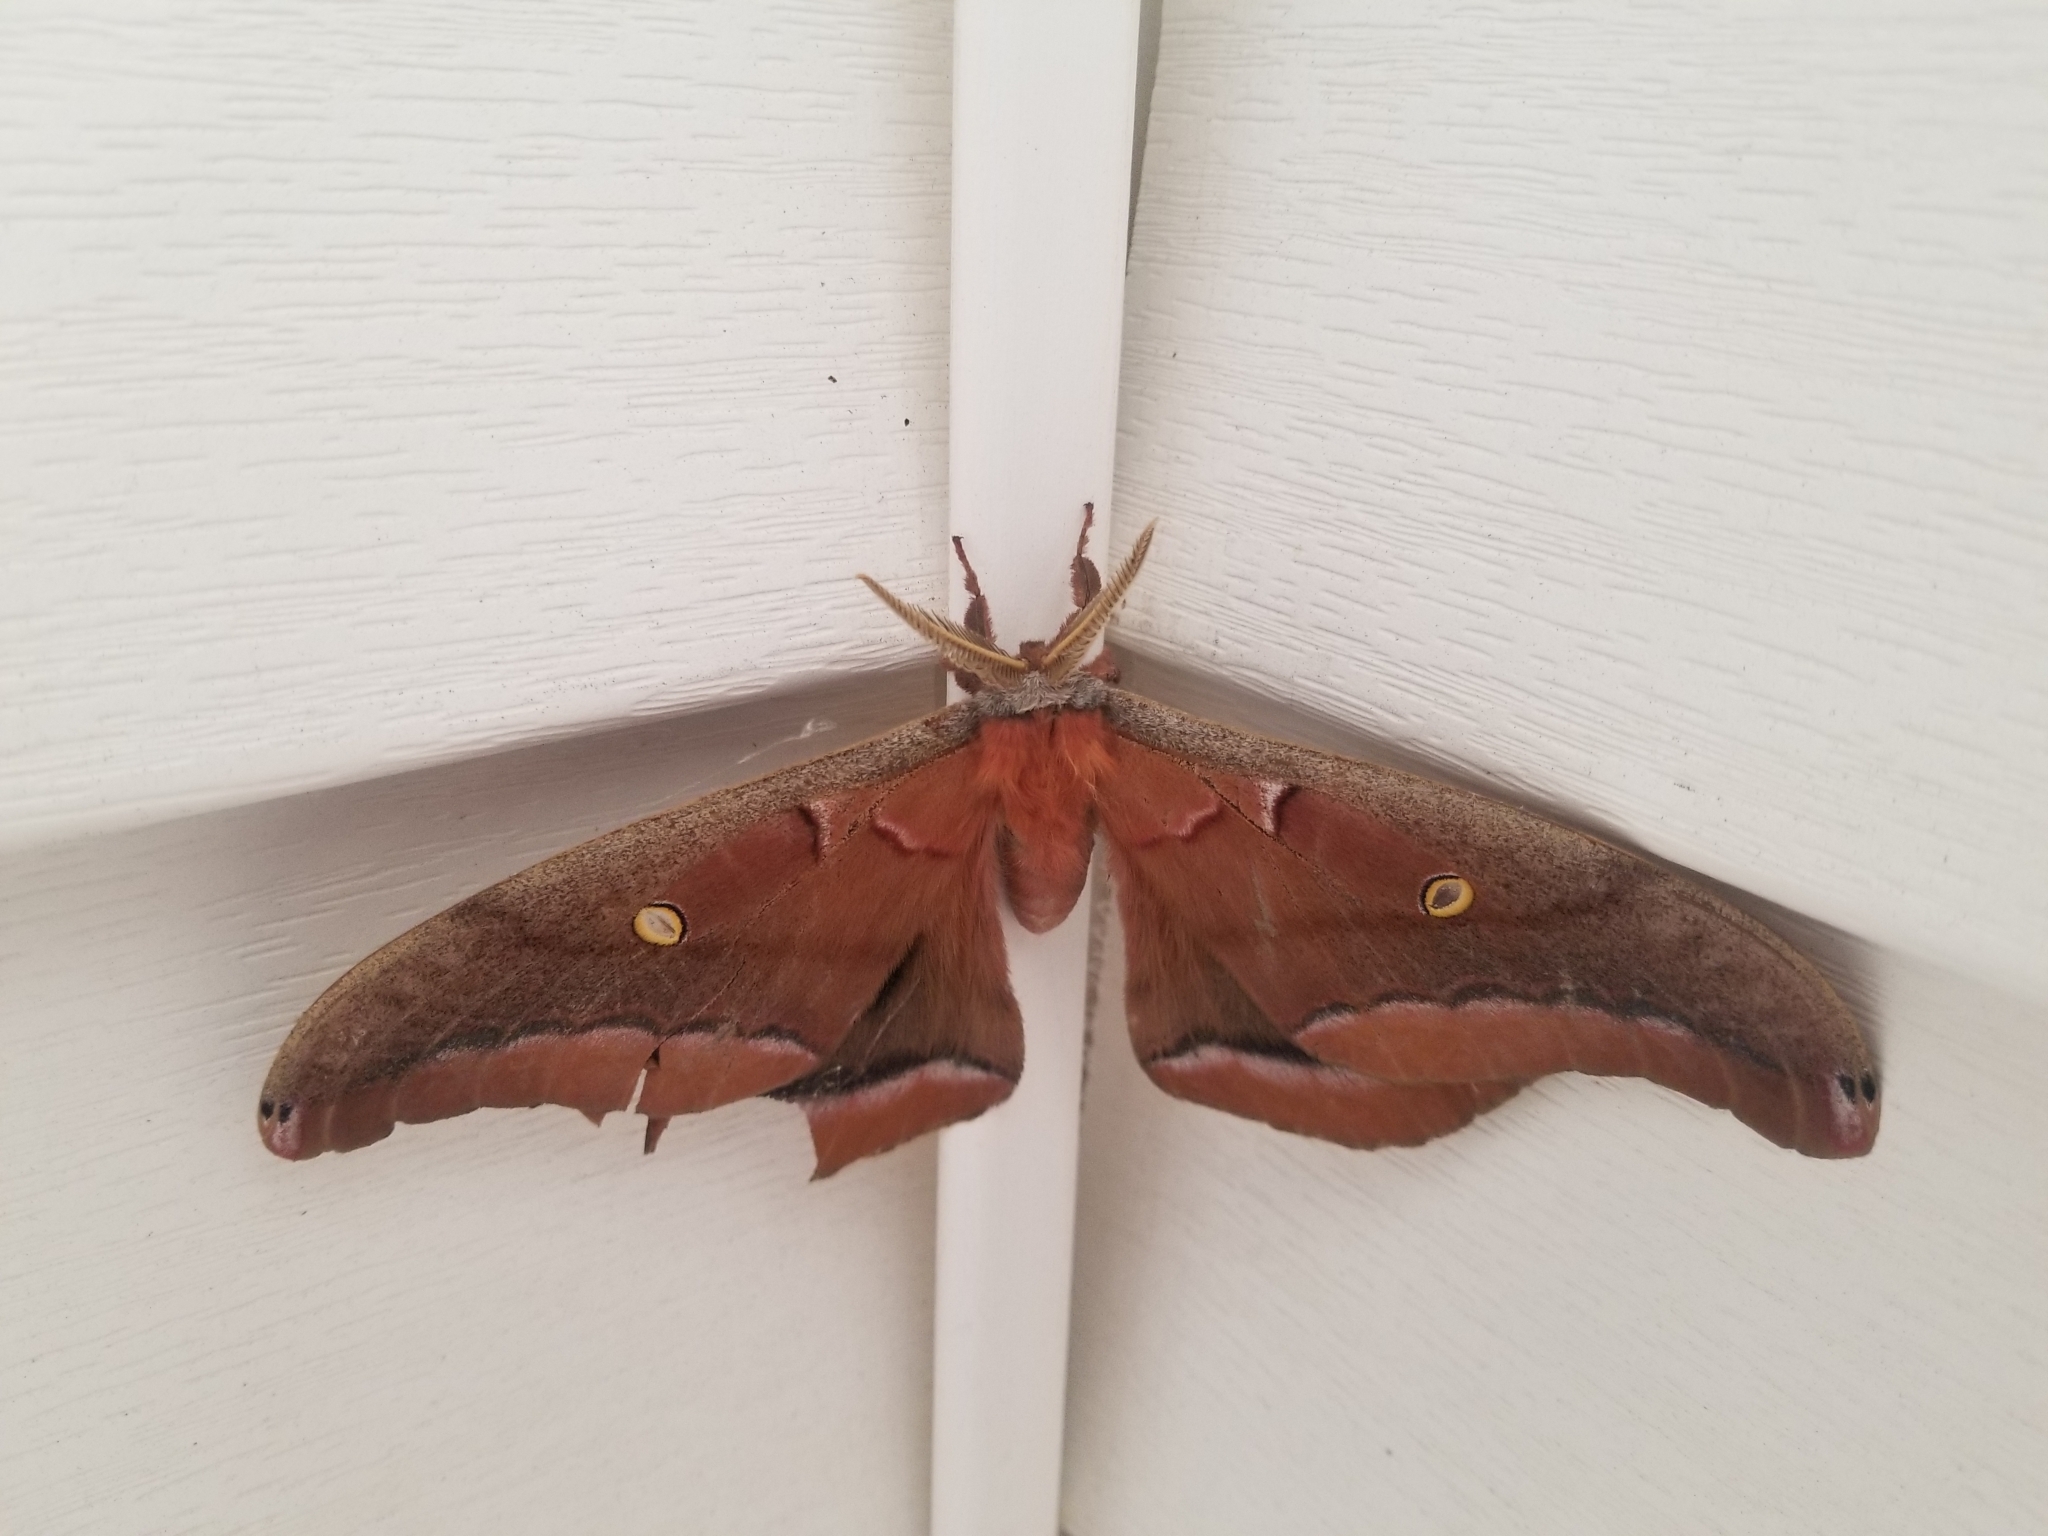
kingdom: Animalia
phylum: Arthropoda
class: Insecta
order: Lepidoptera
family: Saturniidae
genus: Antheraea
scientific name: Antheraea polyphemus
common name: Polyphemus moth
